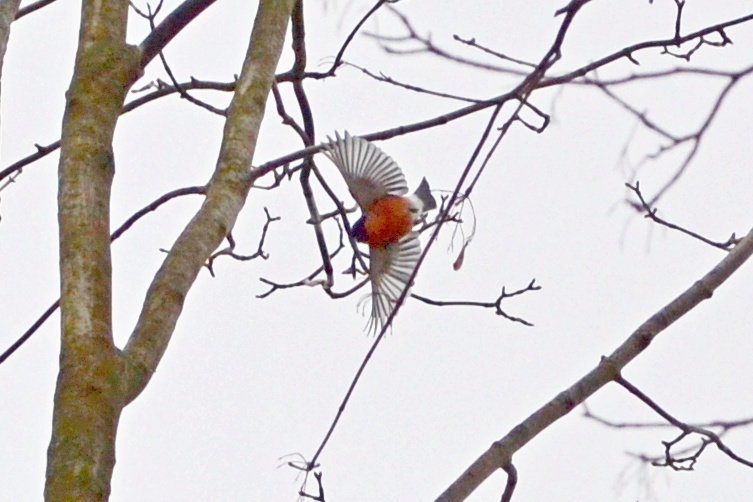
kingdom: Animalia
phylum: Chordata
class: Aves
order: Passeriformes
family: Fringillidae
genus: Pyrrhula
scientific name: Pyrrhula pyrrhula
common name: Eurasian bullfinch
